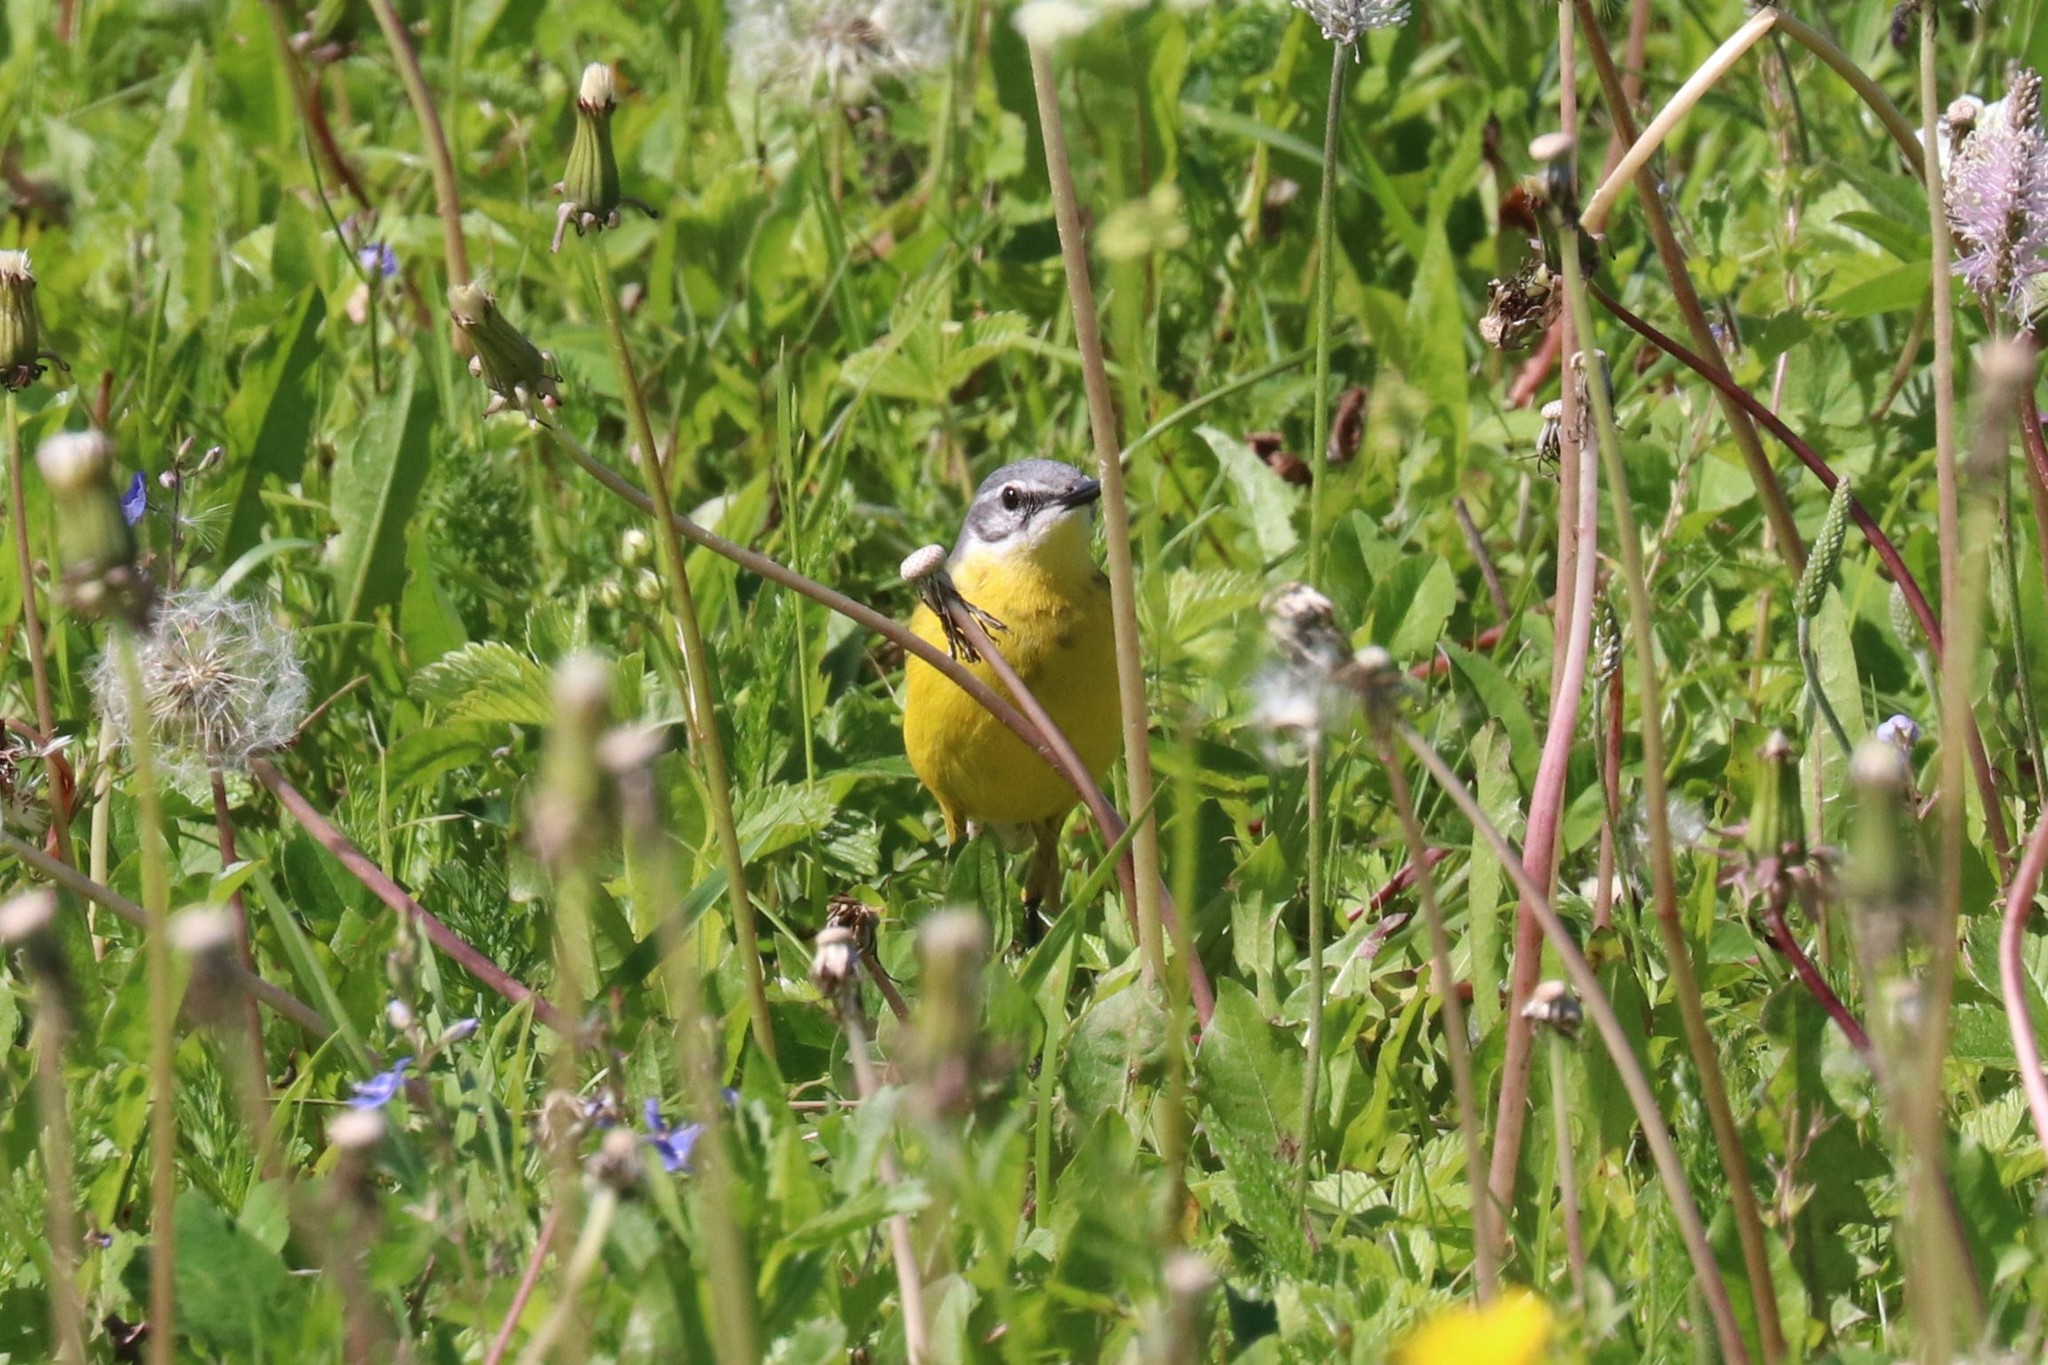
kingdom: Animalia
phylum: Chordata
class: Aves
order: Passeriformes
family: Motacillidae
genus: Motacilla
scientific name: Motacilla flava
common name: Western yellow wagtail
